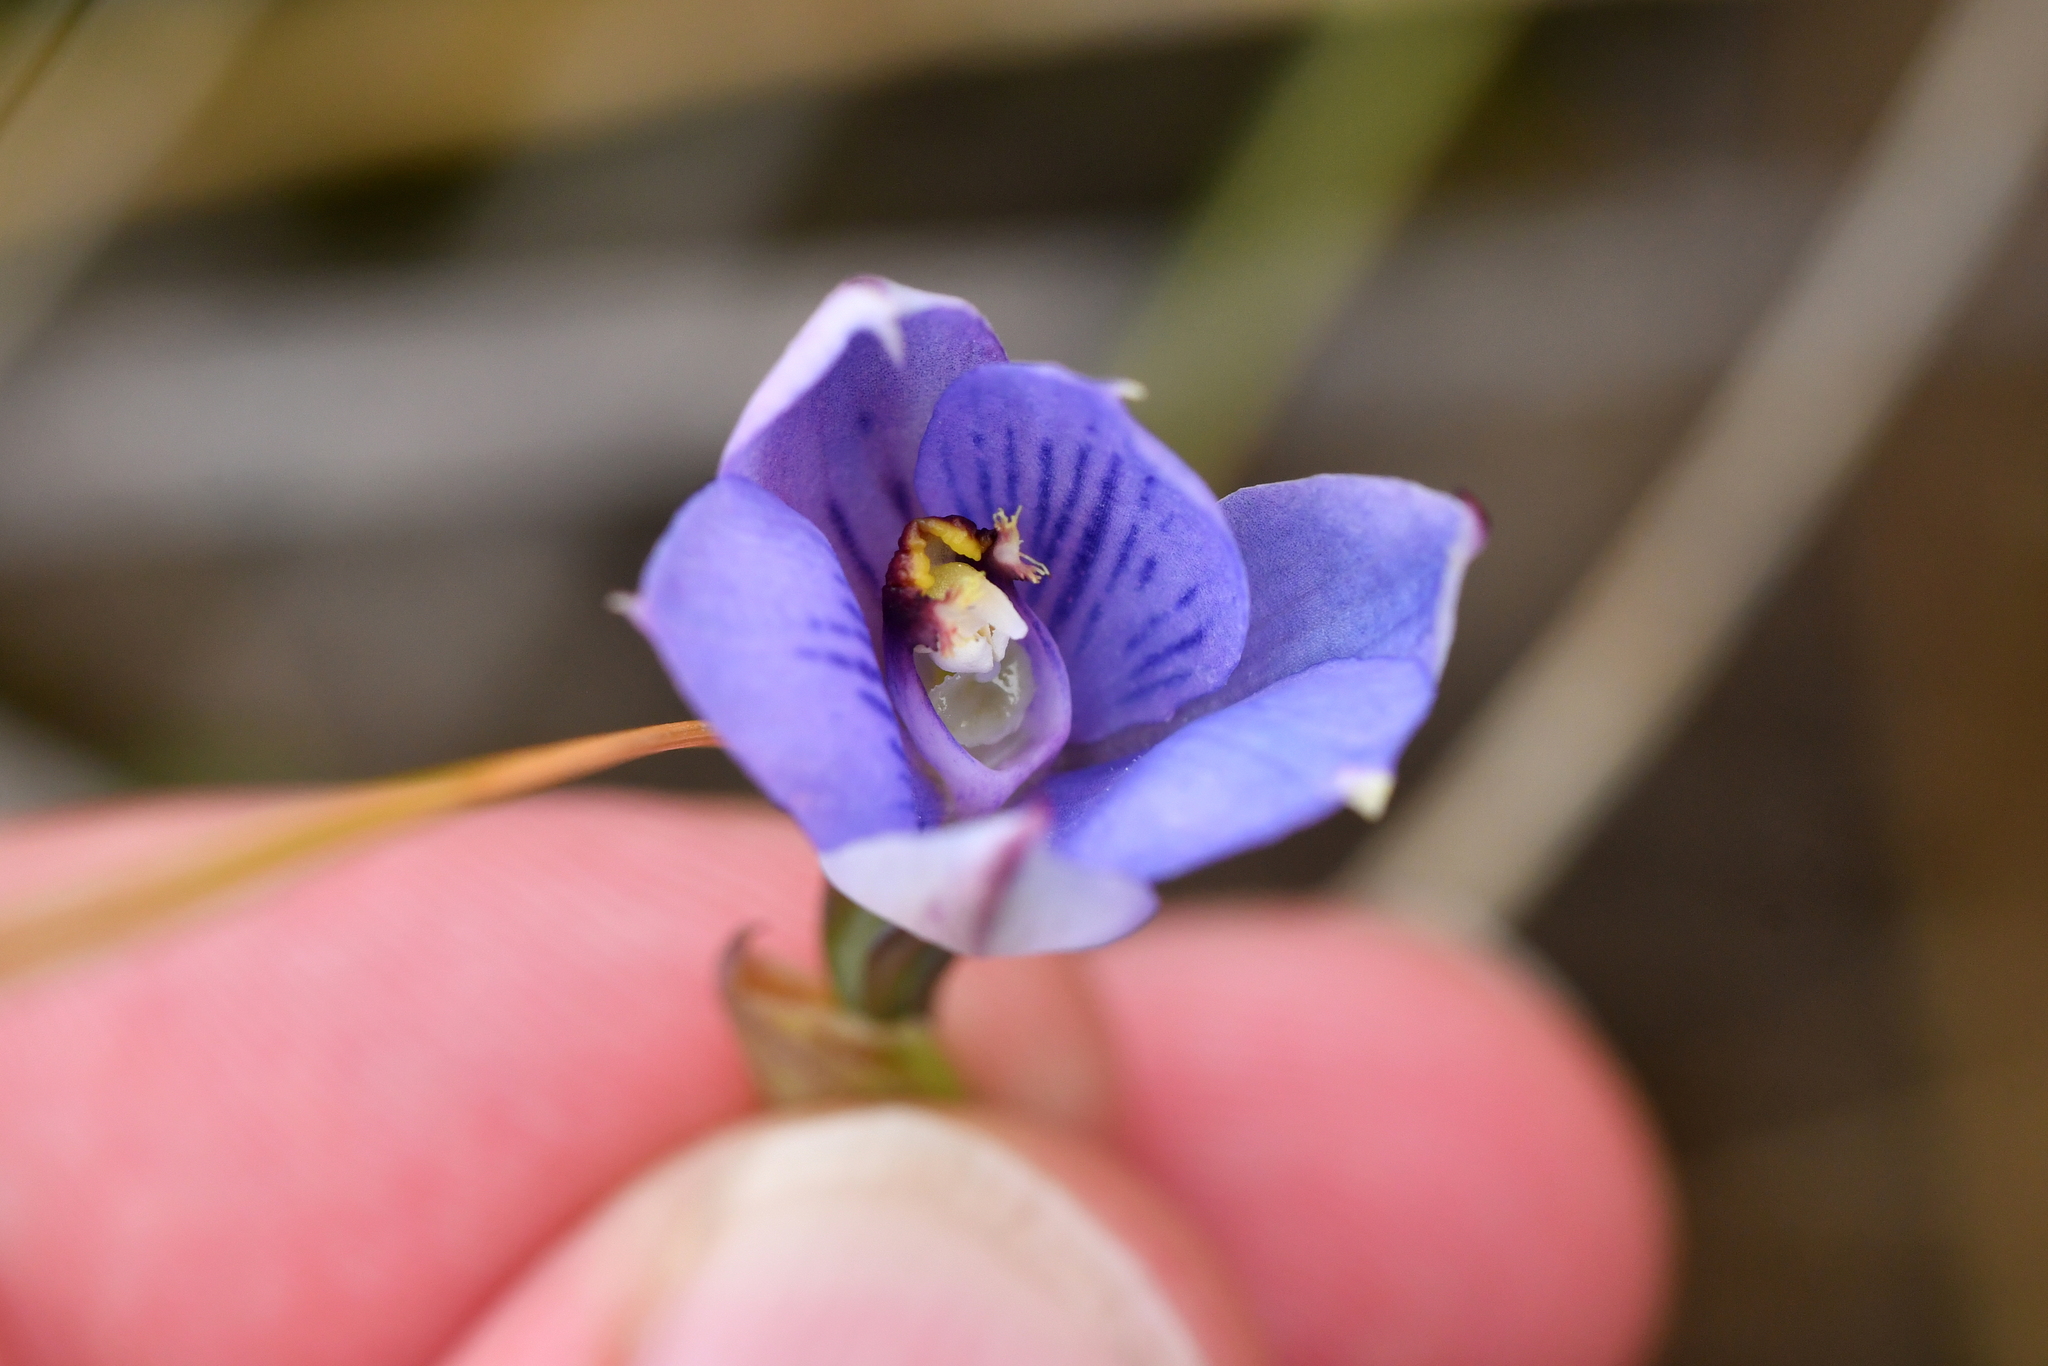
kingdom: Plantae
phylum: Tracheophyta
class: Liliopsida
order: Asparagales
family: Orchidaceae
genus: Thelymitra
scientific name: Thelymitra pulchella
